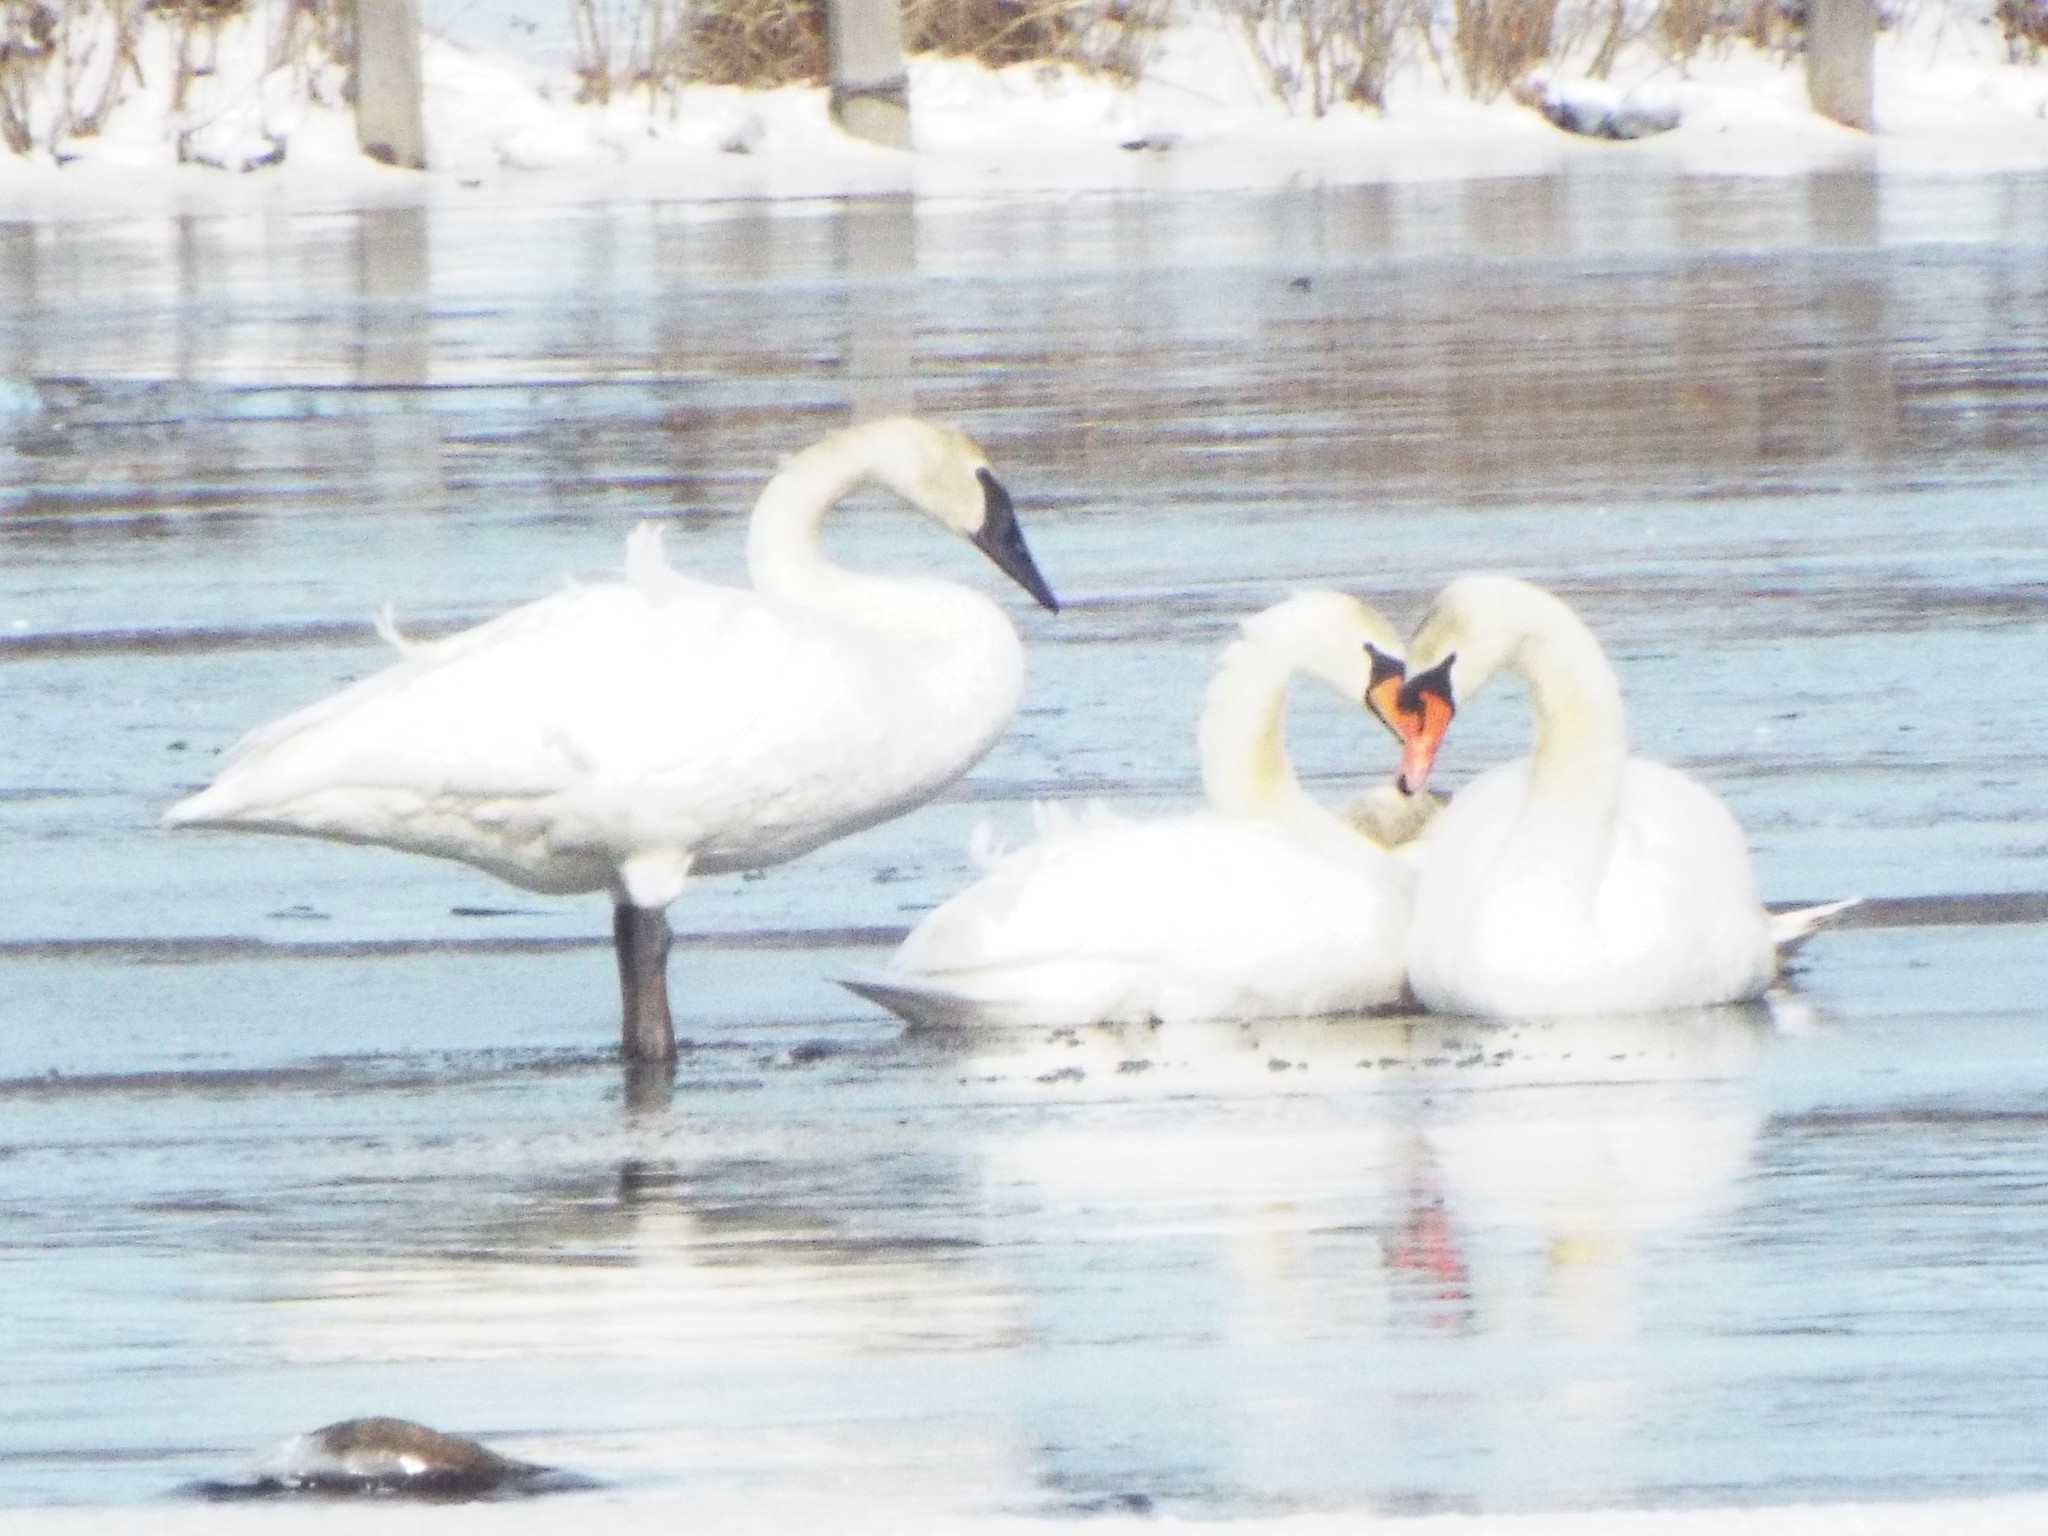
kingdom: Animalia
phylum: Chordata
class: Aves
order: Anseriformes
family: Anatidae
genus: Cygnus
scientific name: Cygnus olor
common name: Mute swan
